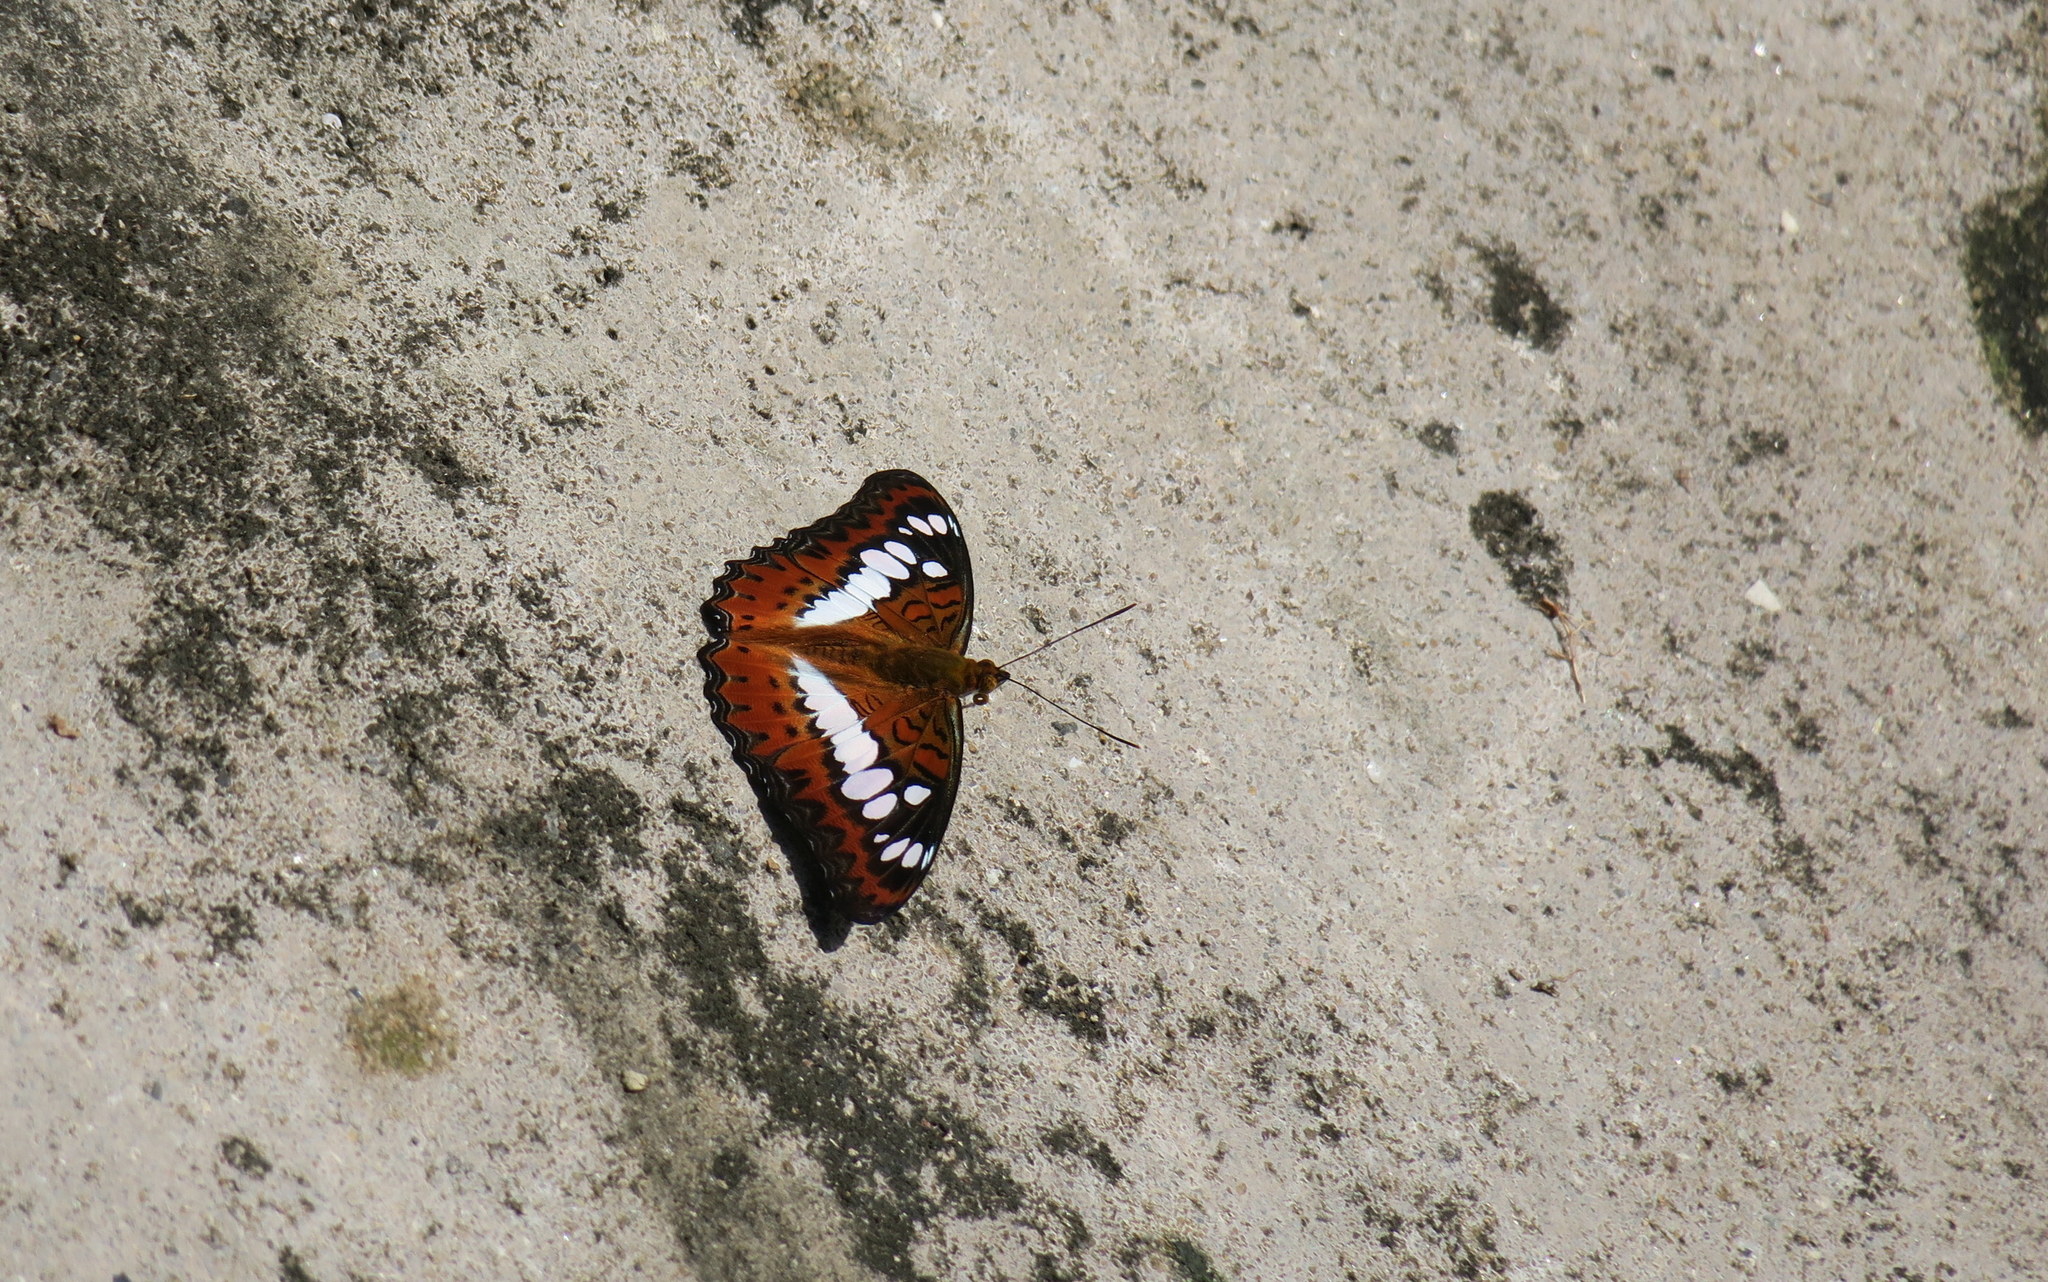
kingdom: Animalia
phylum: Arthropoda
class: Insecta
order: Lepidoptera
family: Nymphalidae
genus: Limenitis
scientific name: Limenitis Moduza procris
